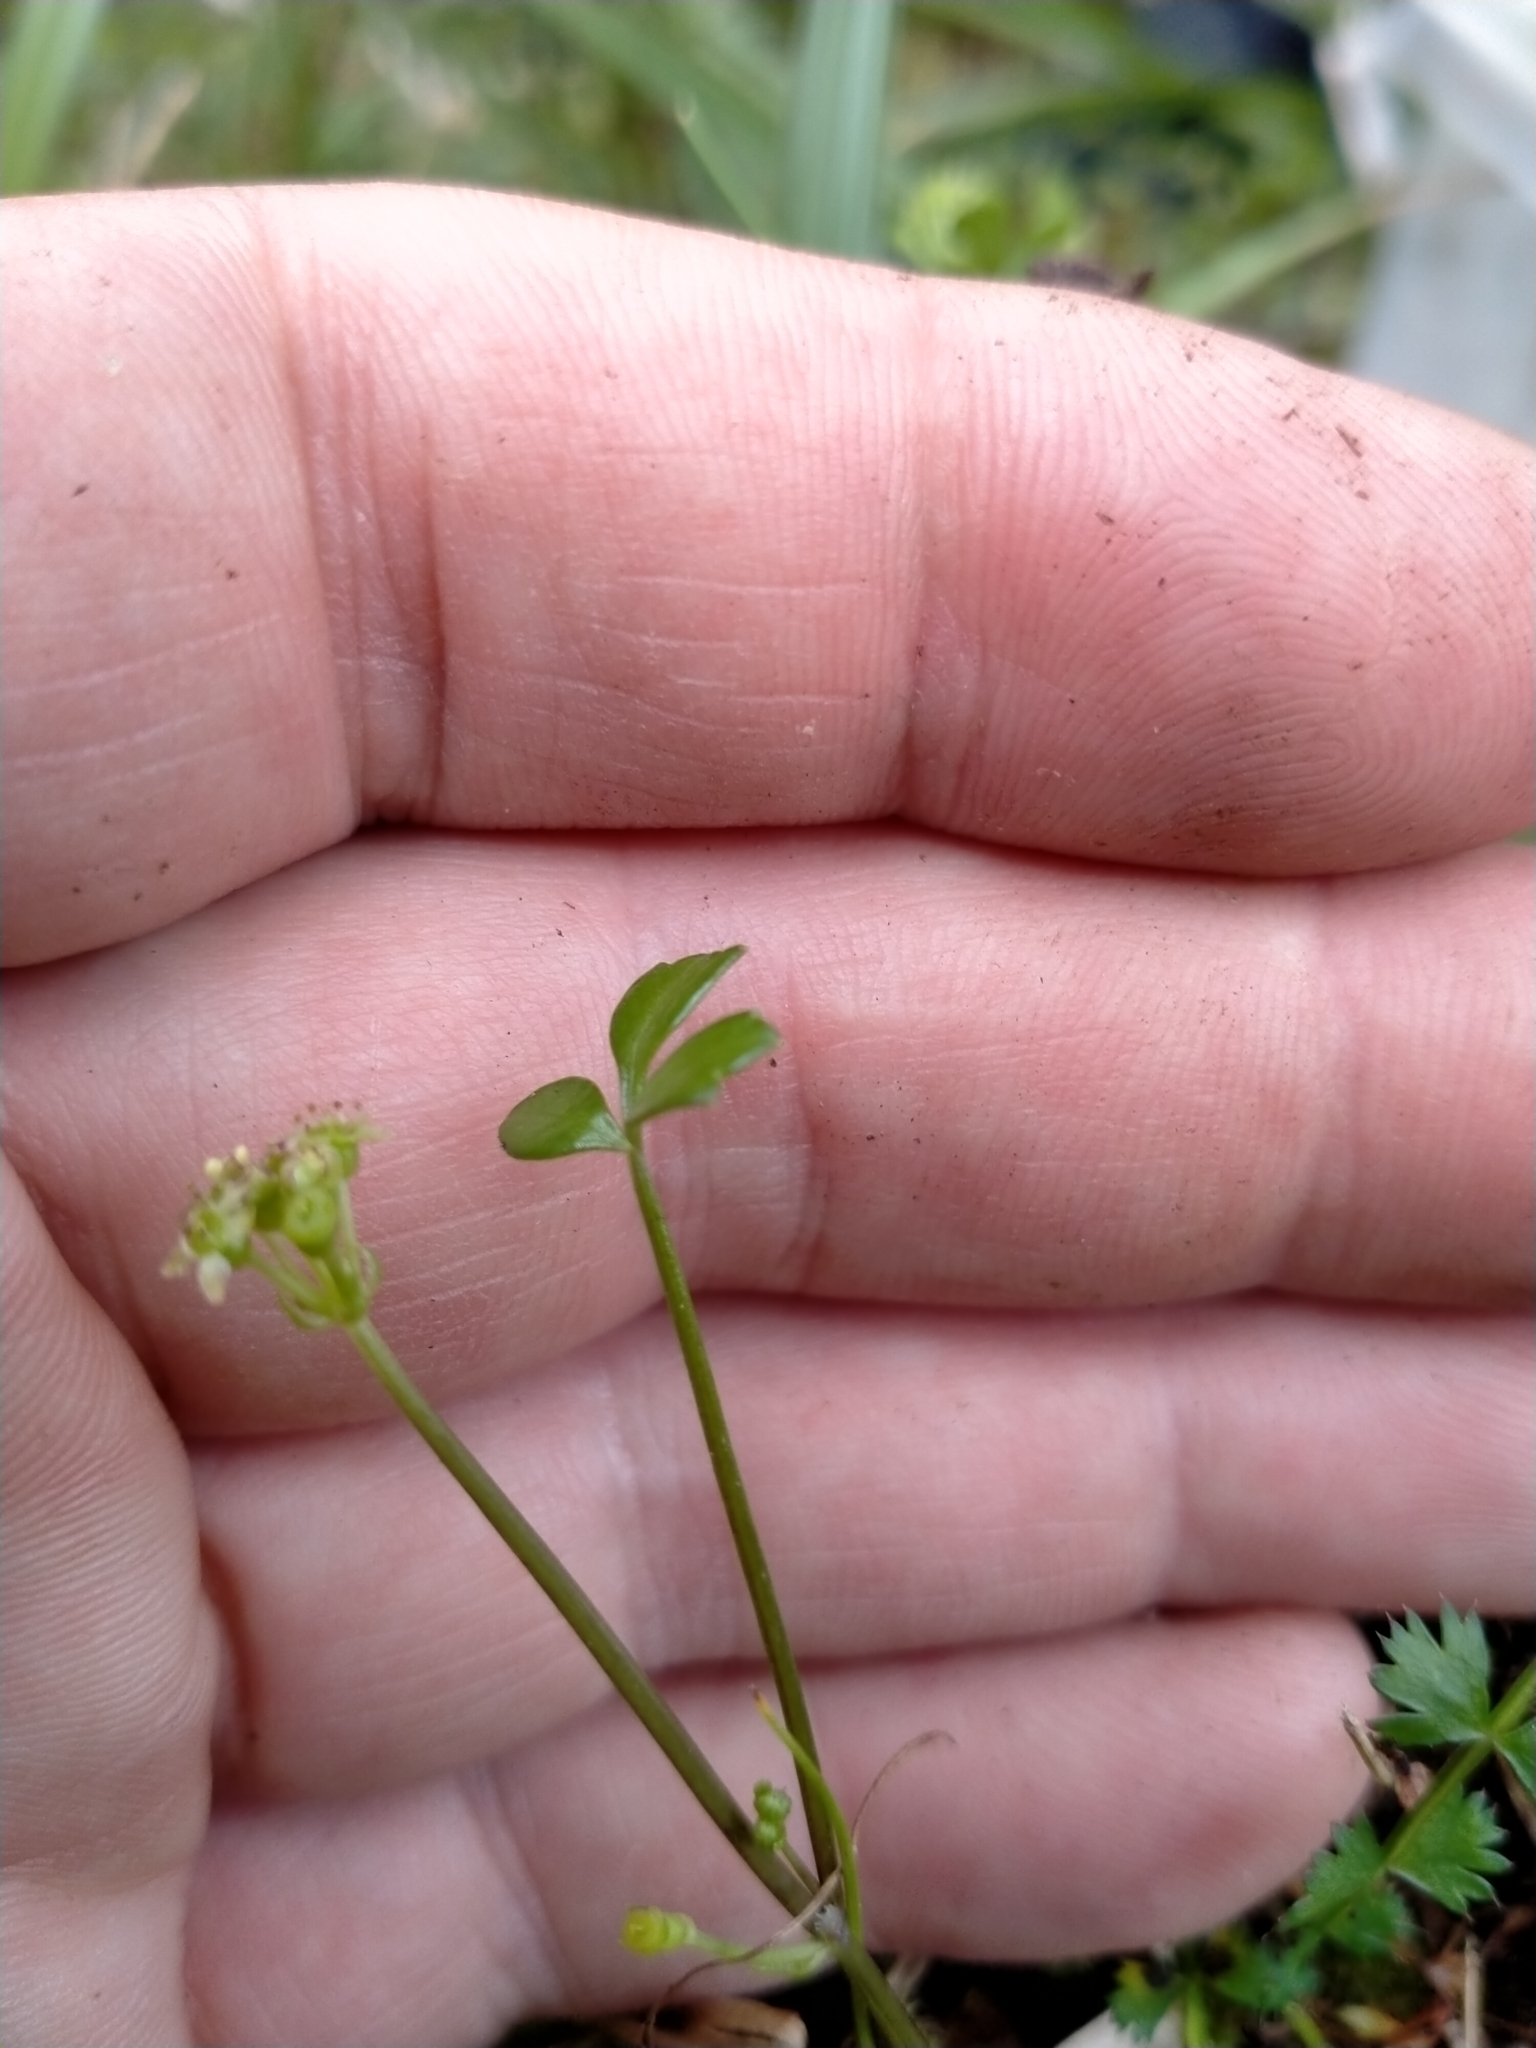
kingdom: Plantae
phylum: Tracheophyta
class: Magnoliopsida
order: Apiales
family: Apiaceae
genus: Azorella
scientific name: Azorella nitens
